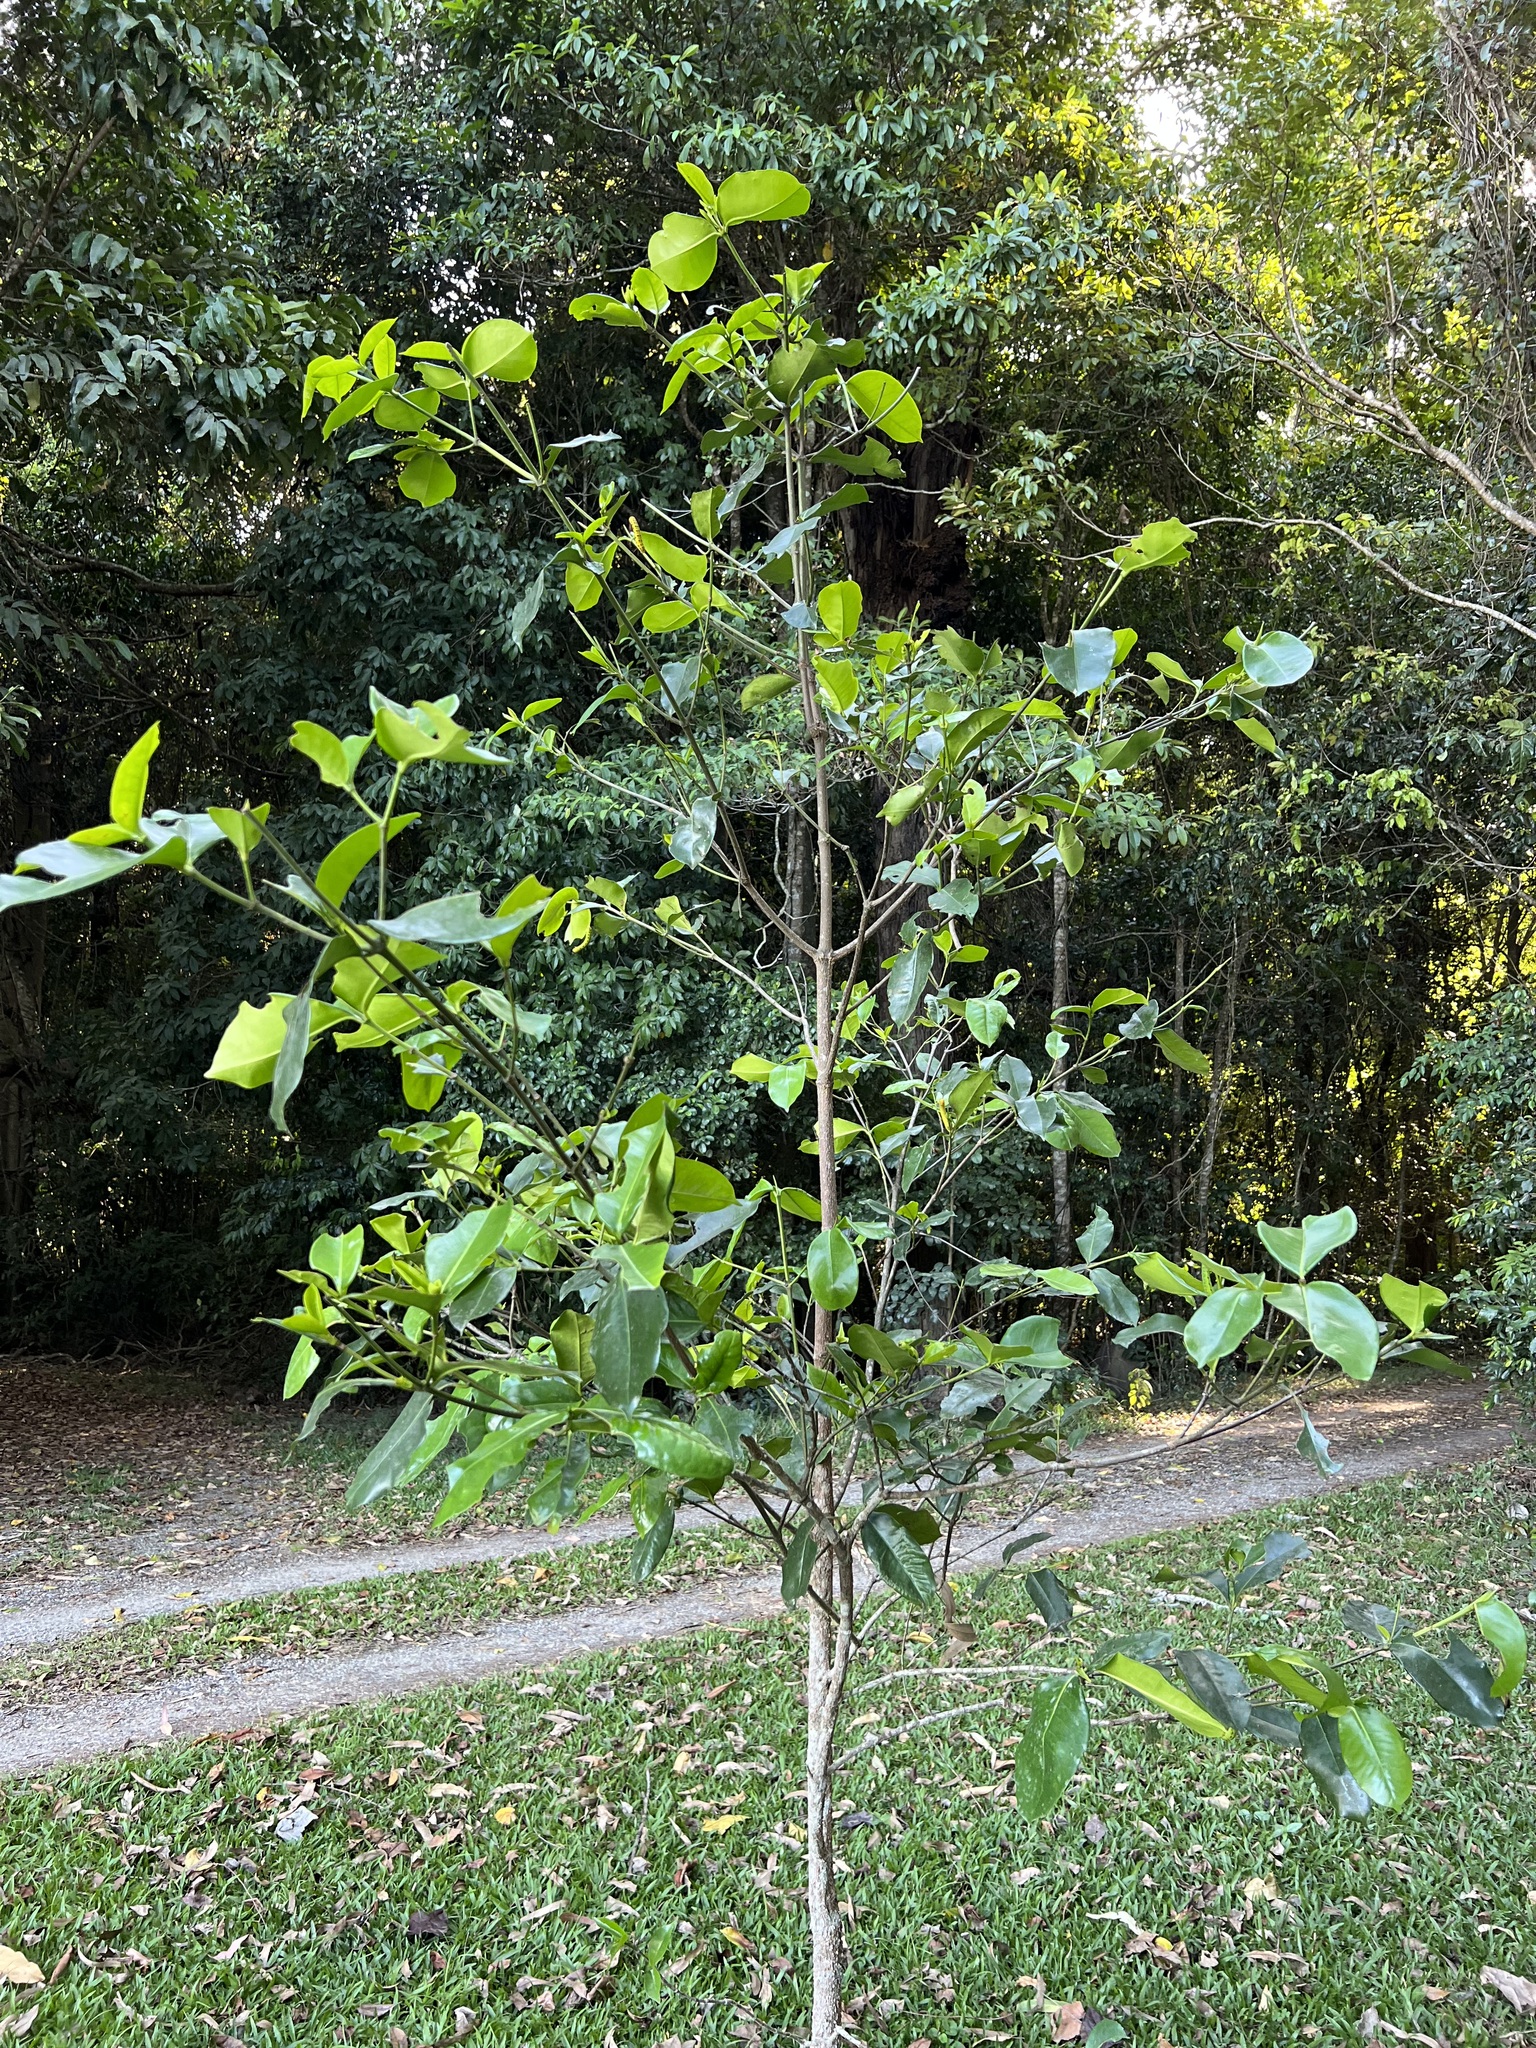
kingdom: Plantae
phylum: Tracheophyta
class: Magnoliopsida
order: Malpighiales
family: Rhizophoraceae
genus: Carallia
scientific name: Carallia brachiata
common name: Carallawood
